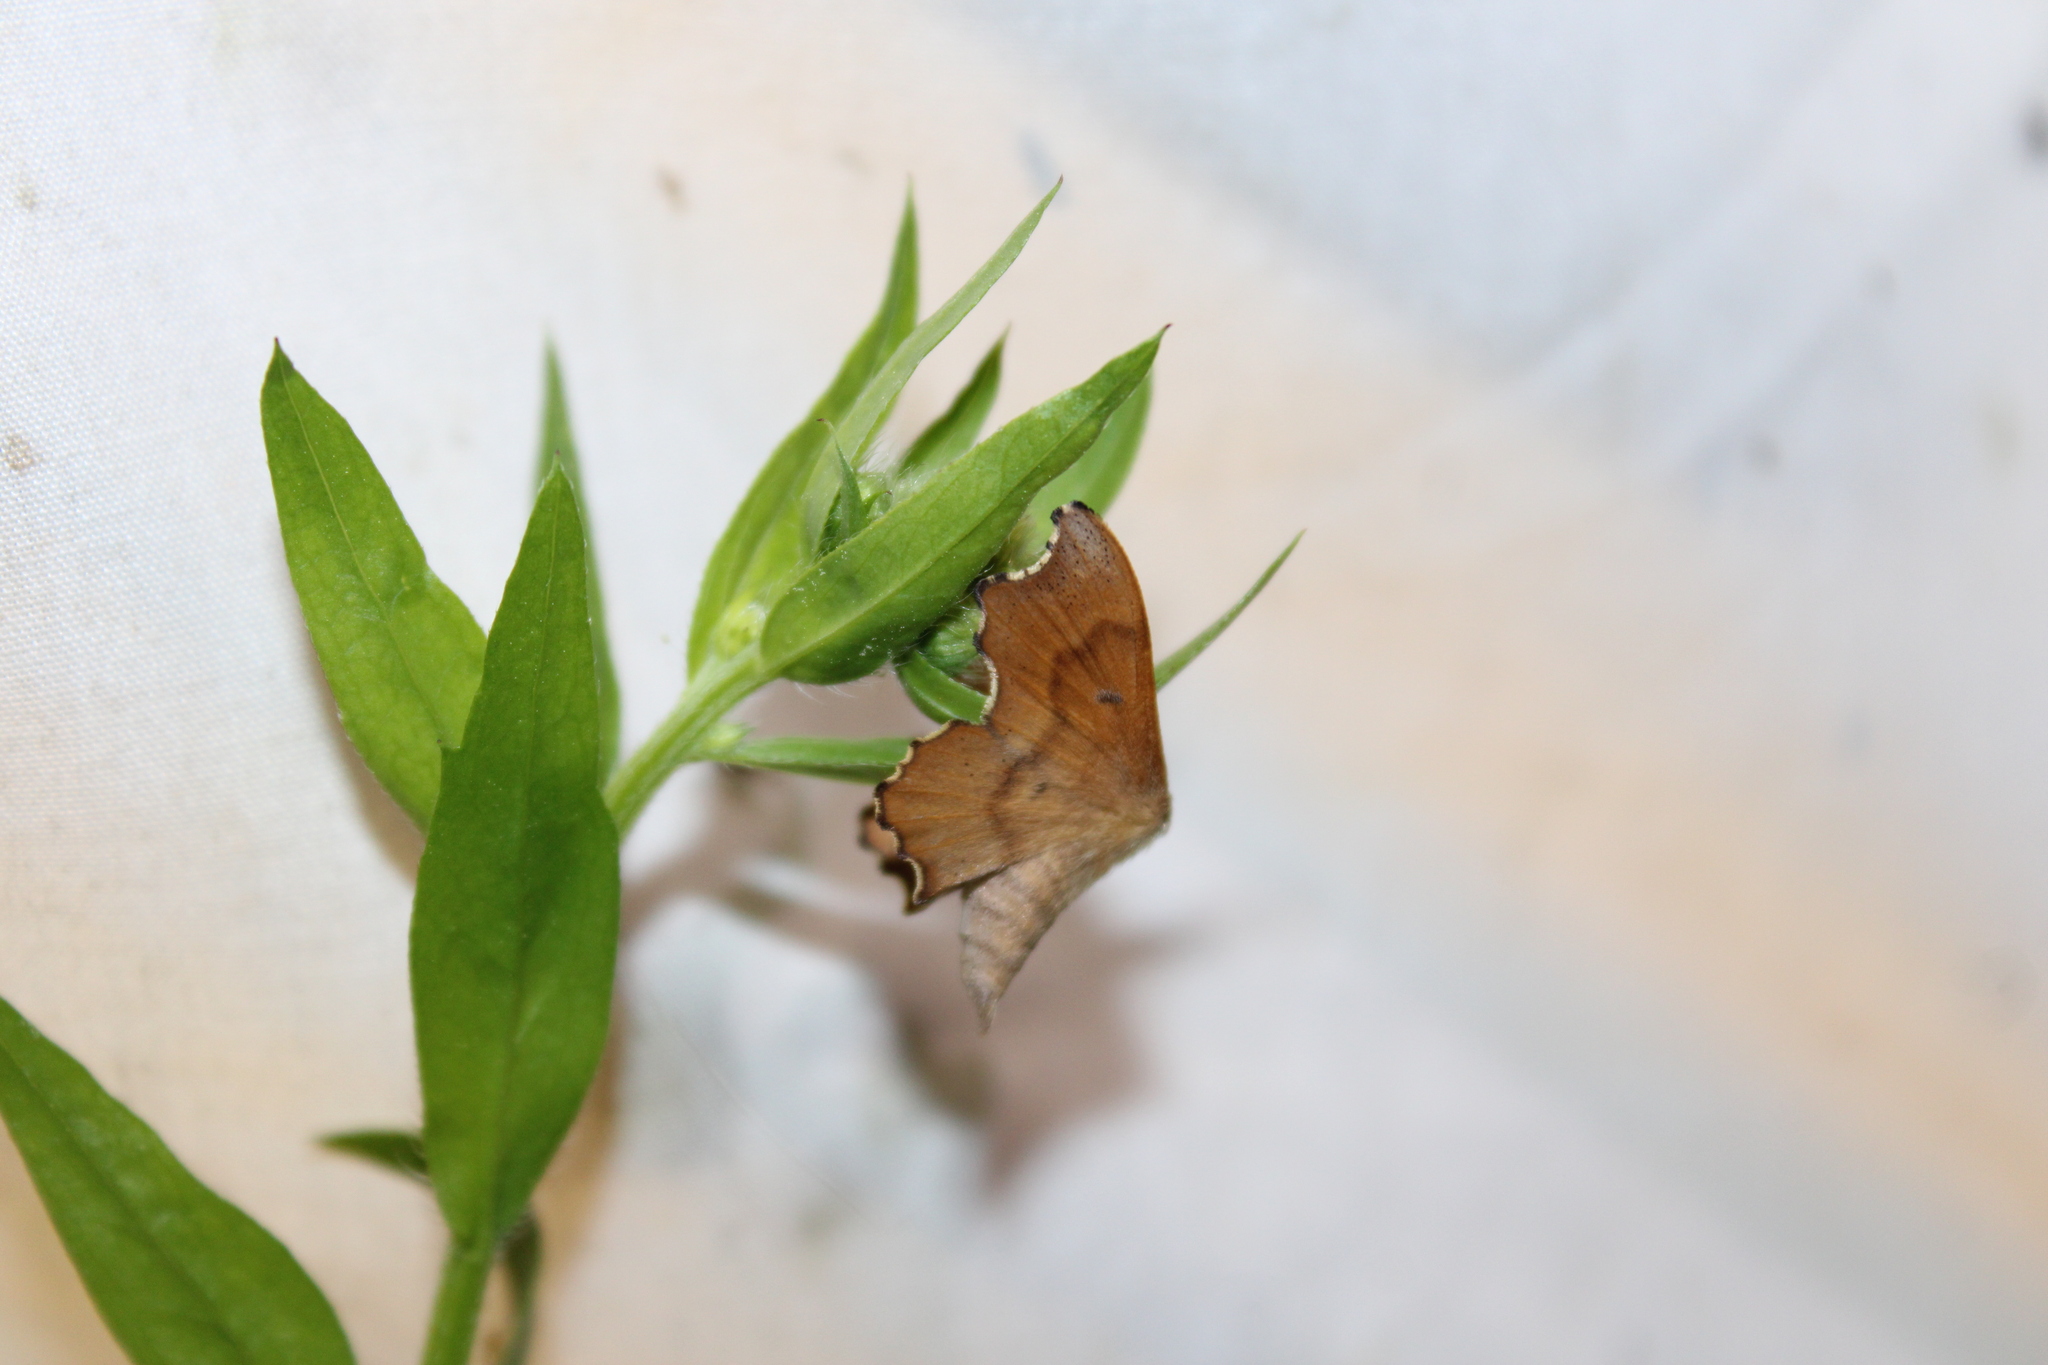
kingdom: Animalia
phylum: Arthropoda
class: Insecta
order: Lepidoptera
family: Mimallonidae
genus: Lacosoma
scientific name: Lacosoma chiridota
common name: Scalloped sack-bearer moth
